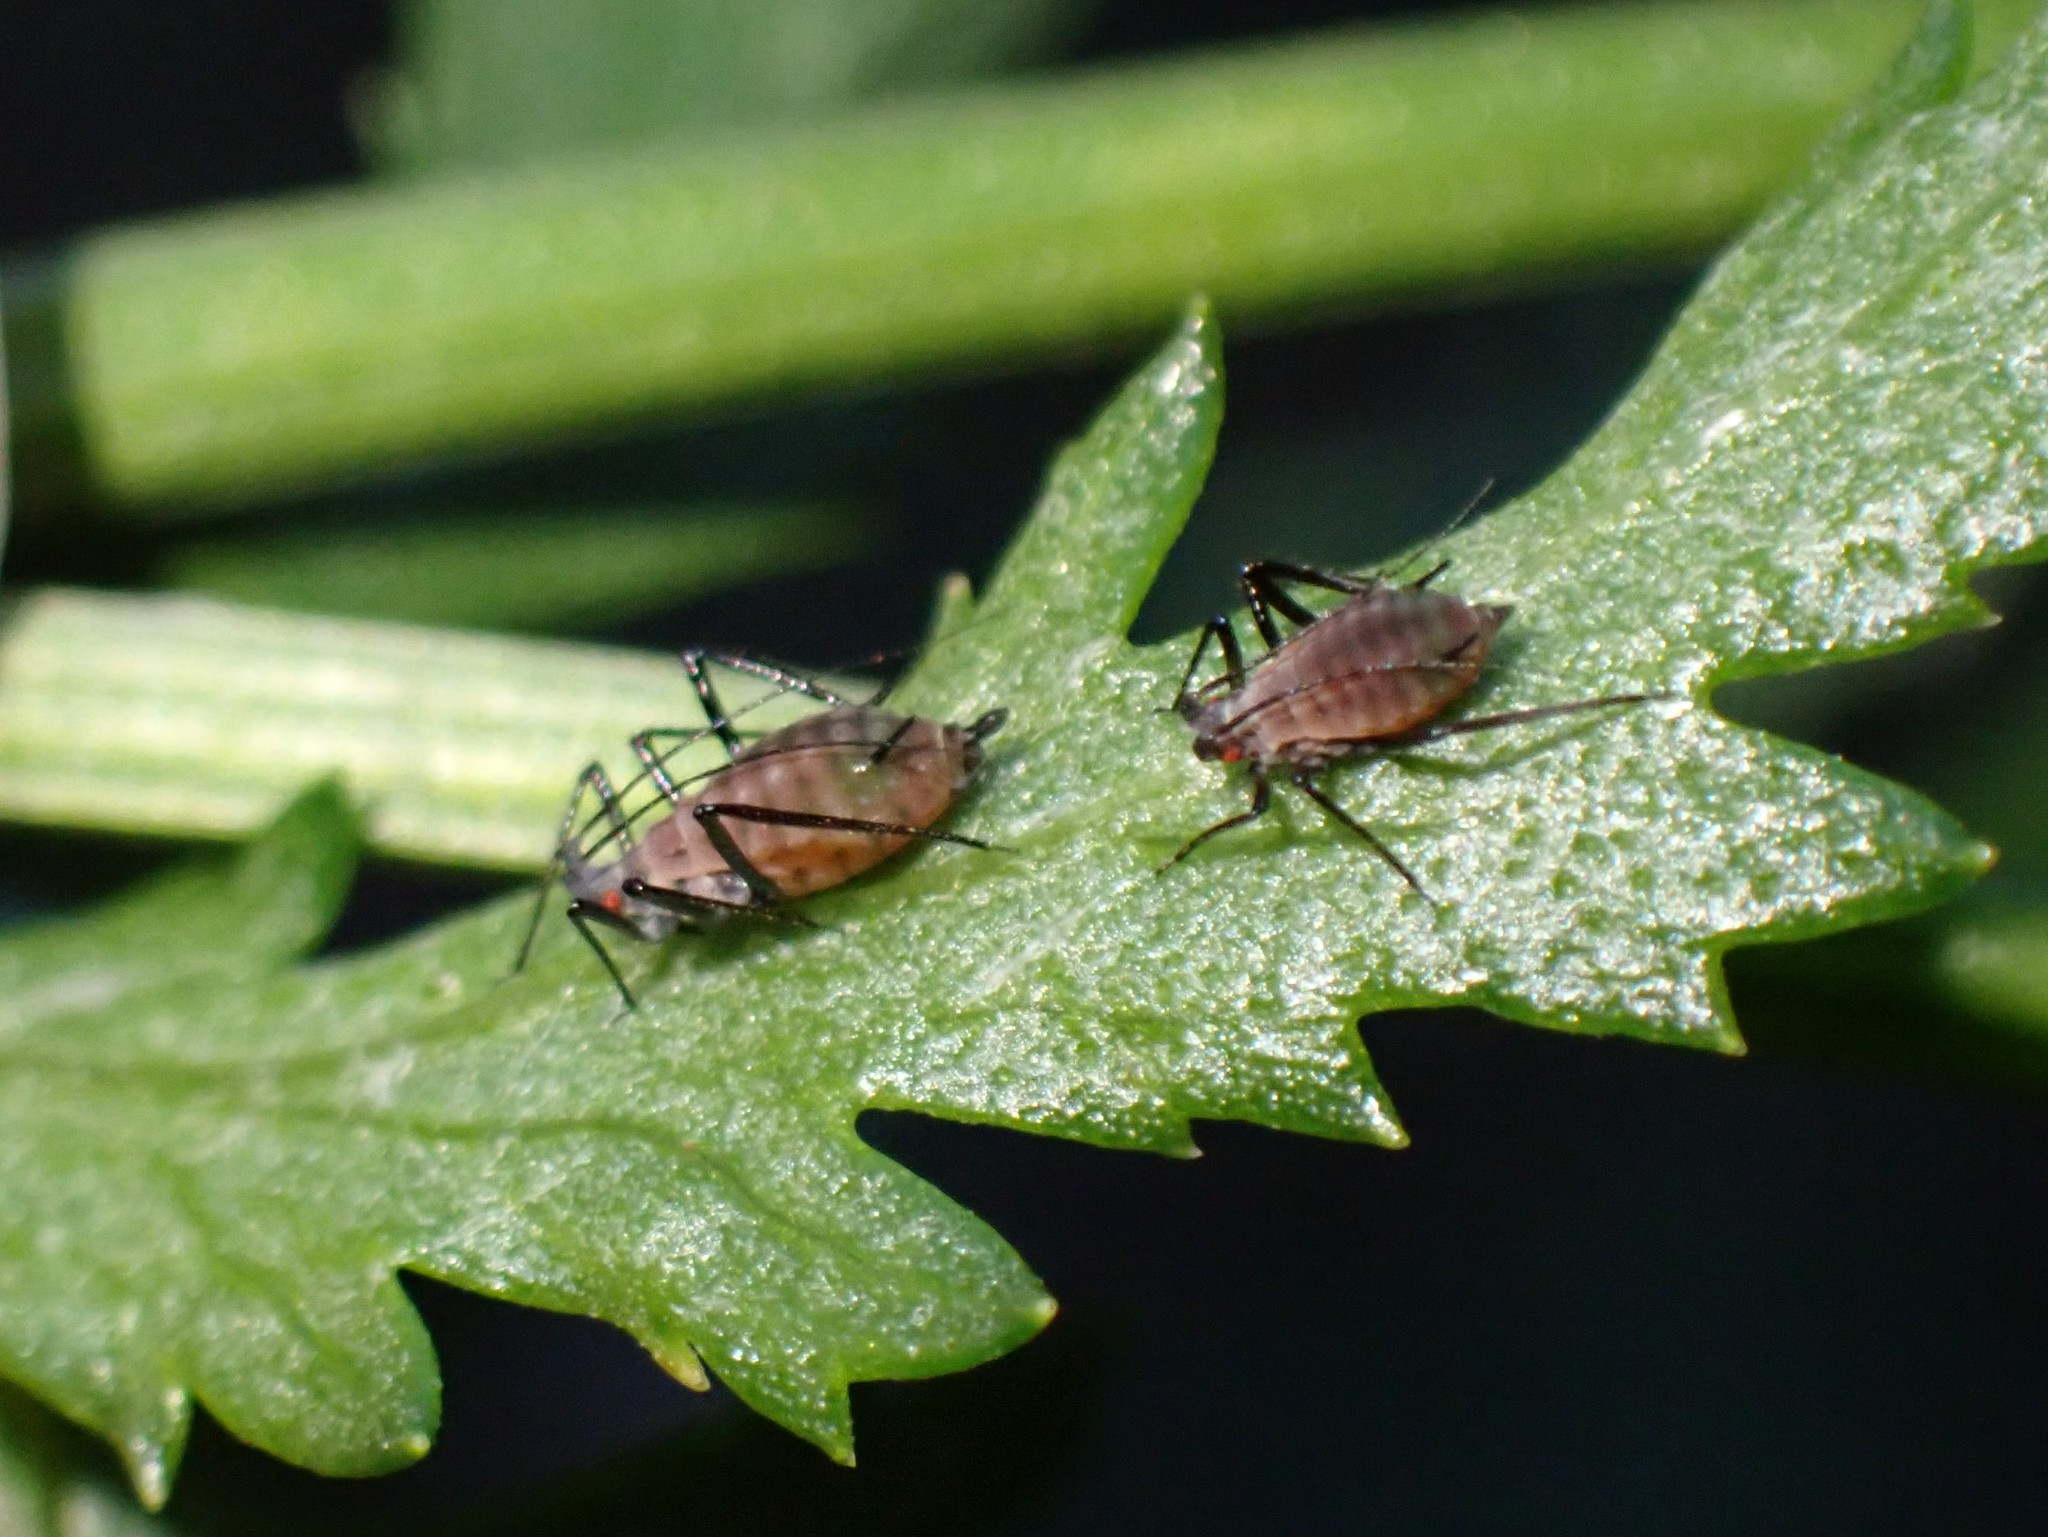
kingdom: Animalia
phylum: Arthropoda
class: Insecta
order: Hemiptera
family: Aphididae
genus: Macrosiphoniella
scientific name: Macrosiphoniella tanacetaria
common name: Aphid
